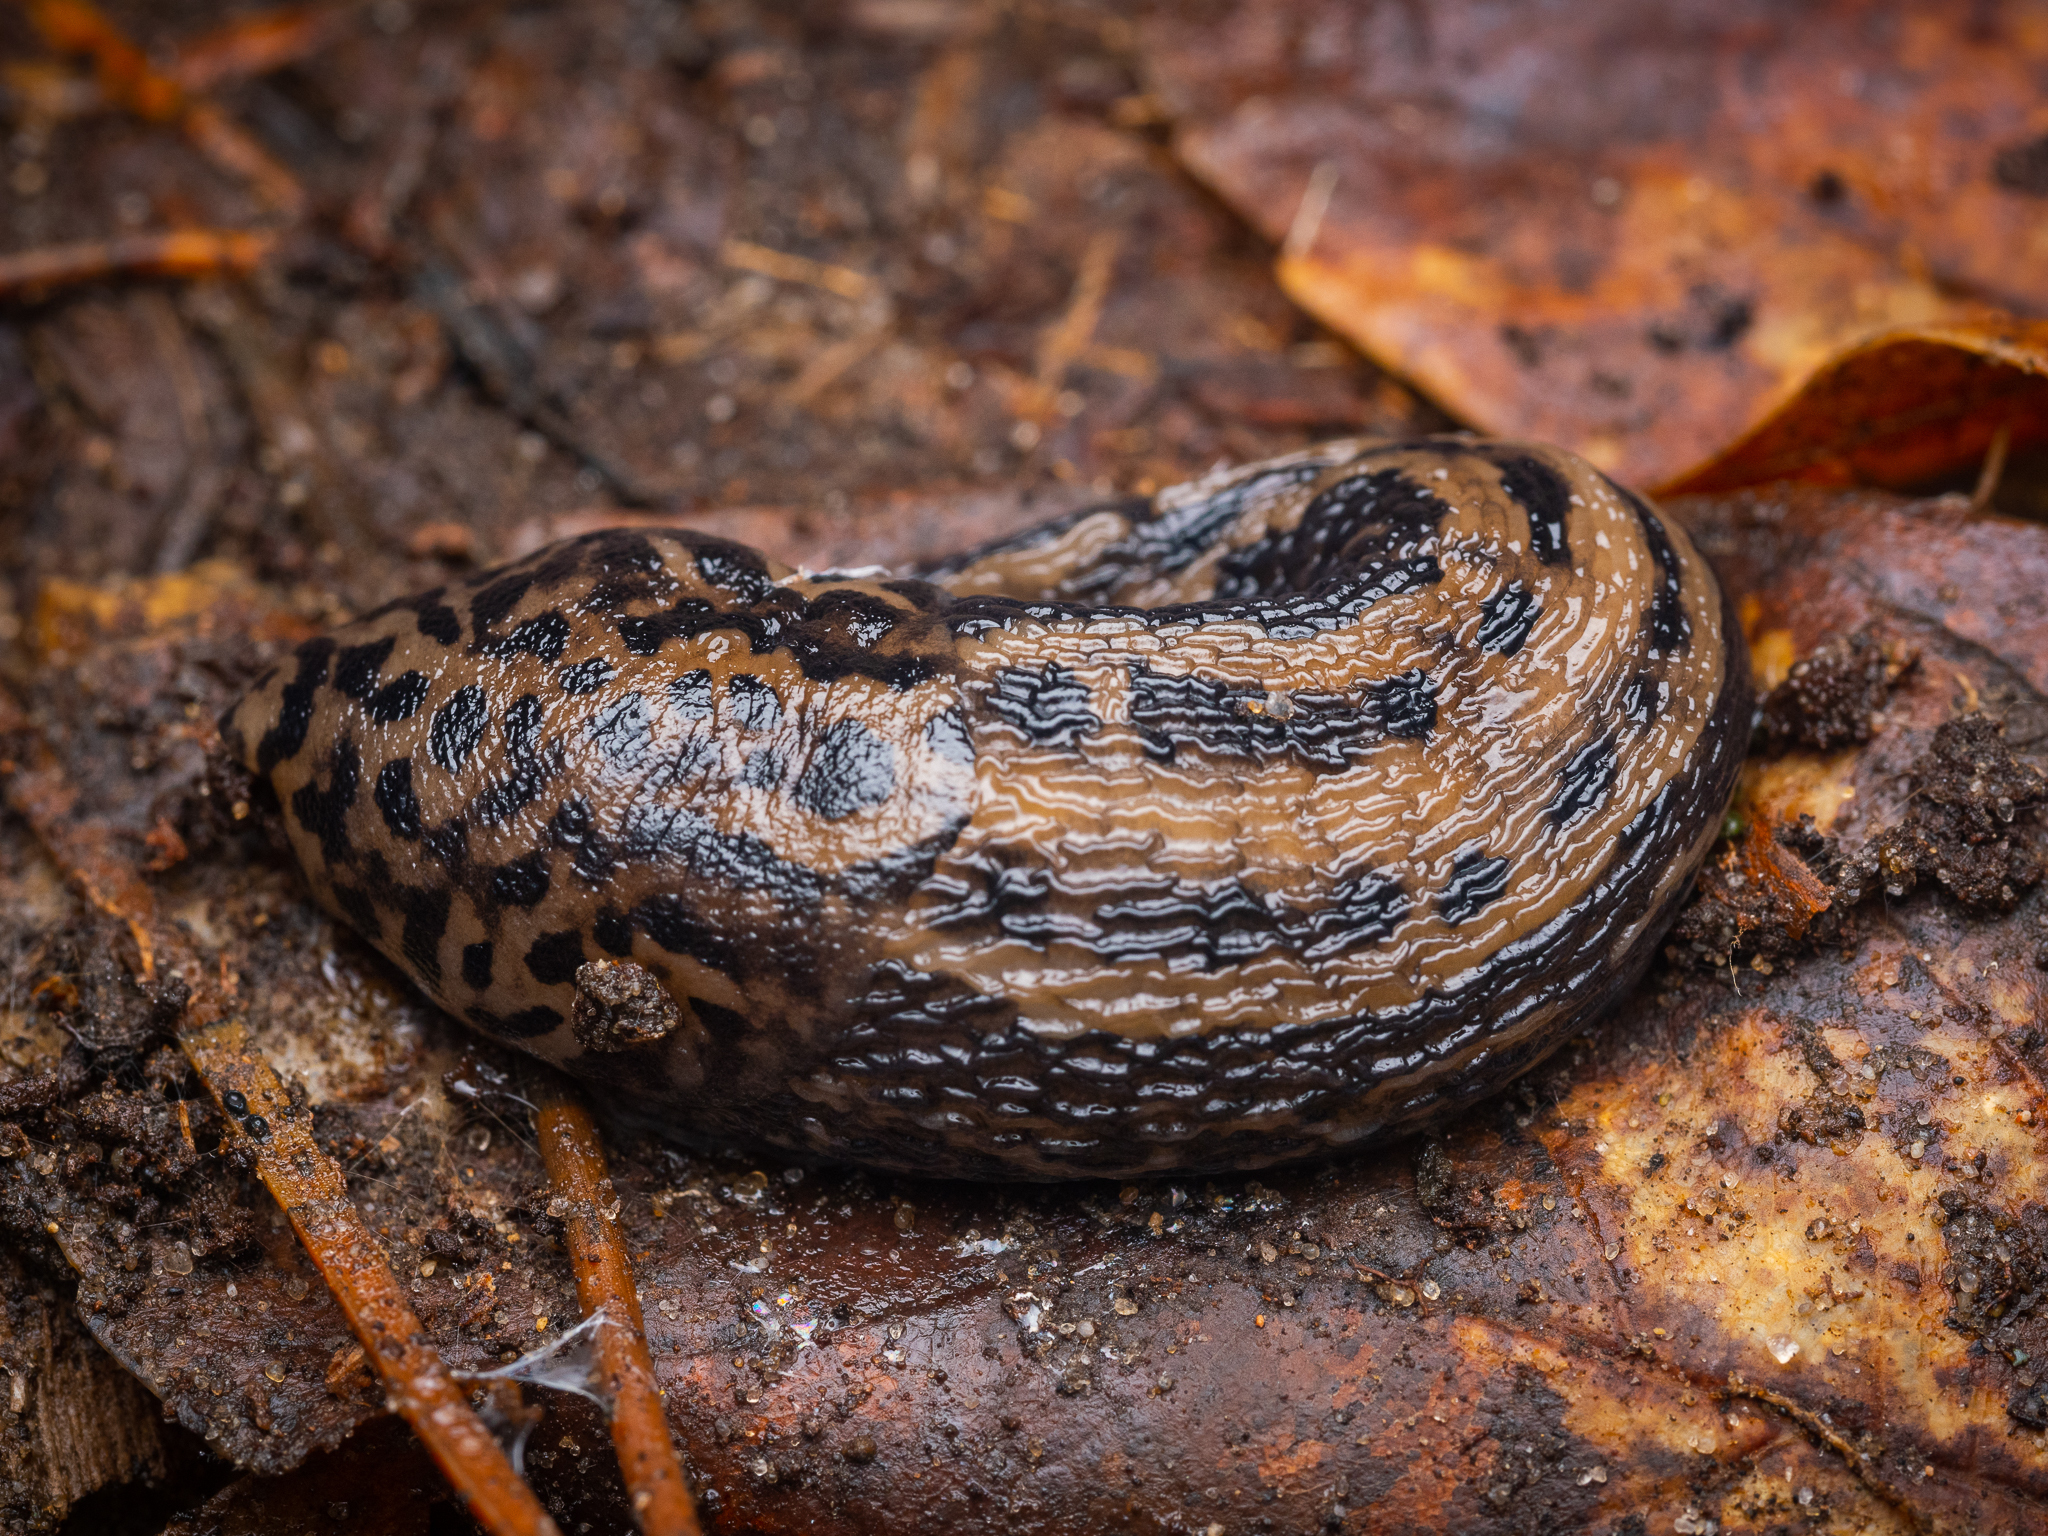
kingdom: Animalia
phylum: Mollusca
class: Gastropoda
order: Stylommatophora
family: Limacidae
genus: Limax
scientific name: Limax maximus
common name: Great grey slug
